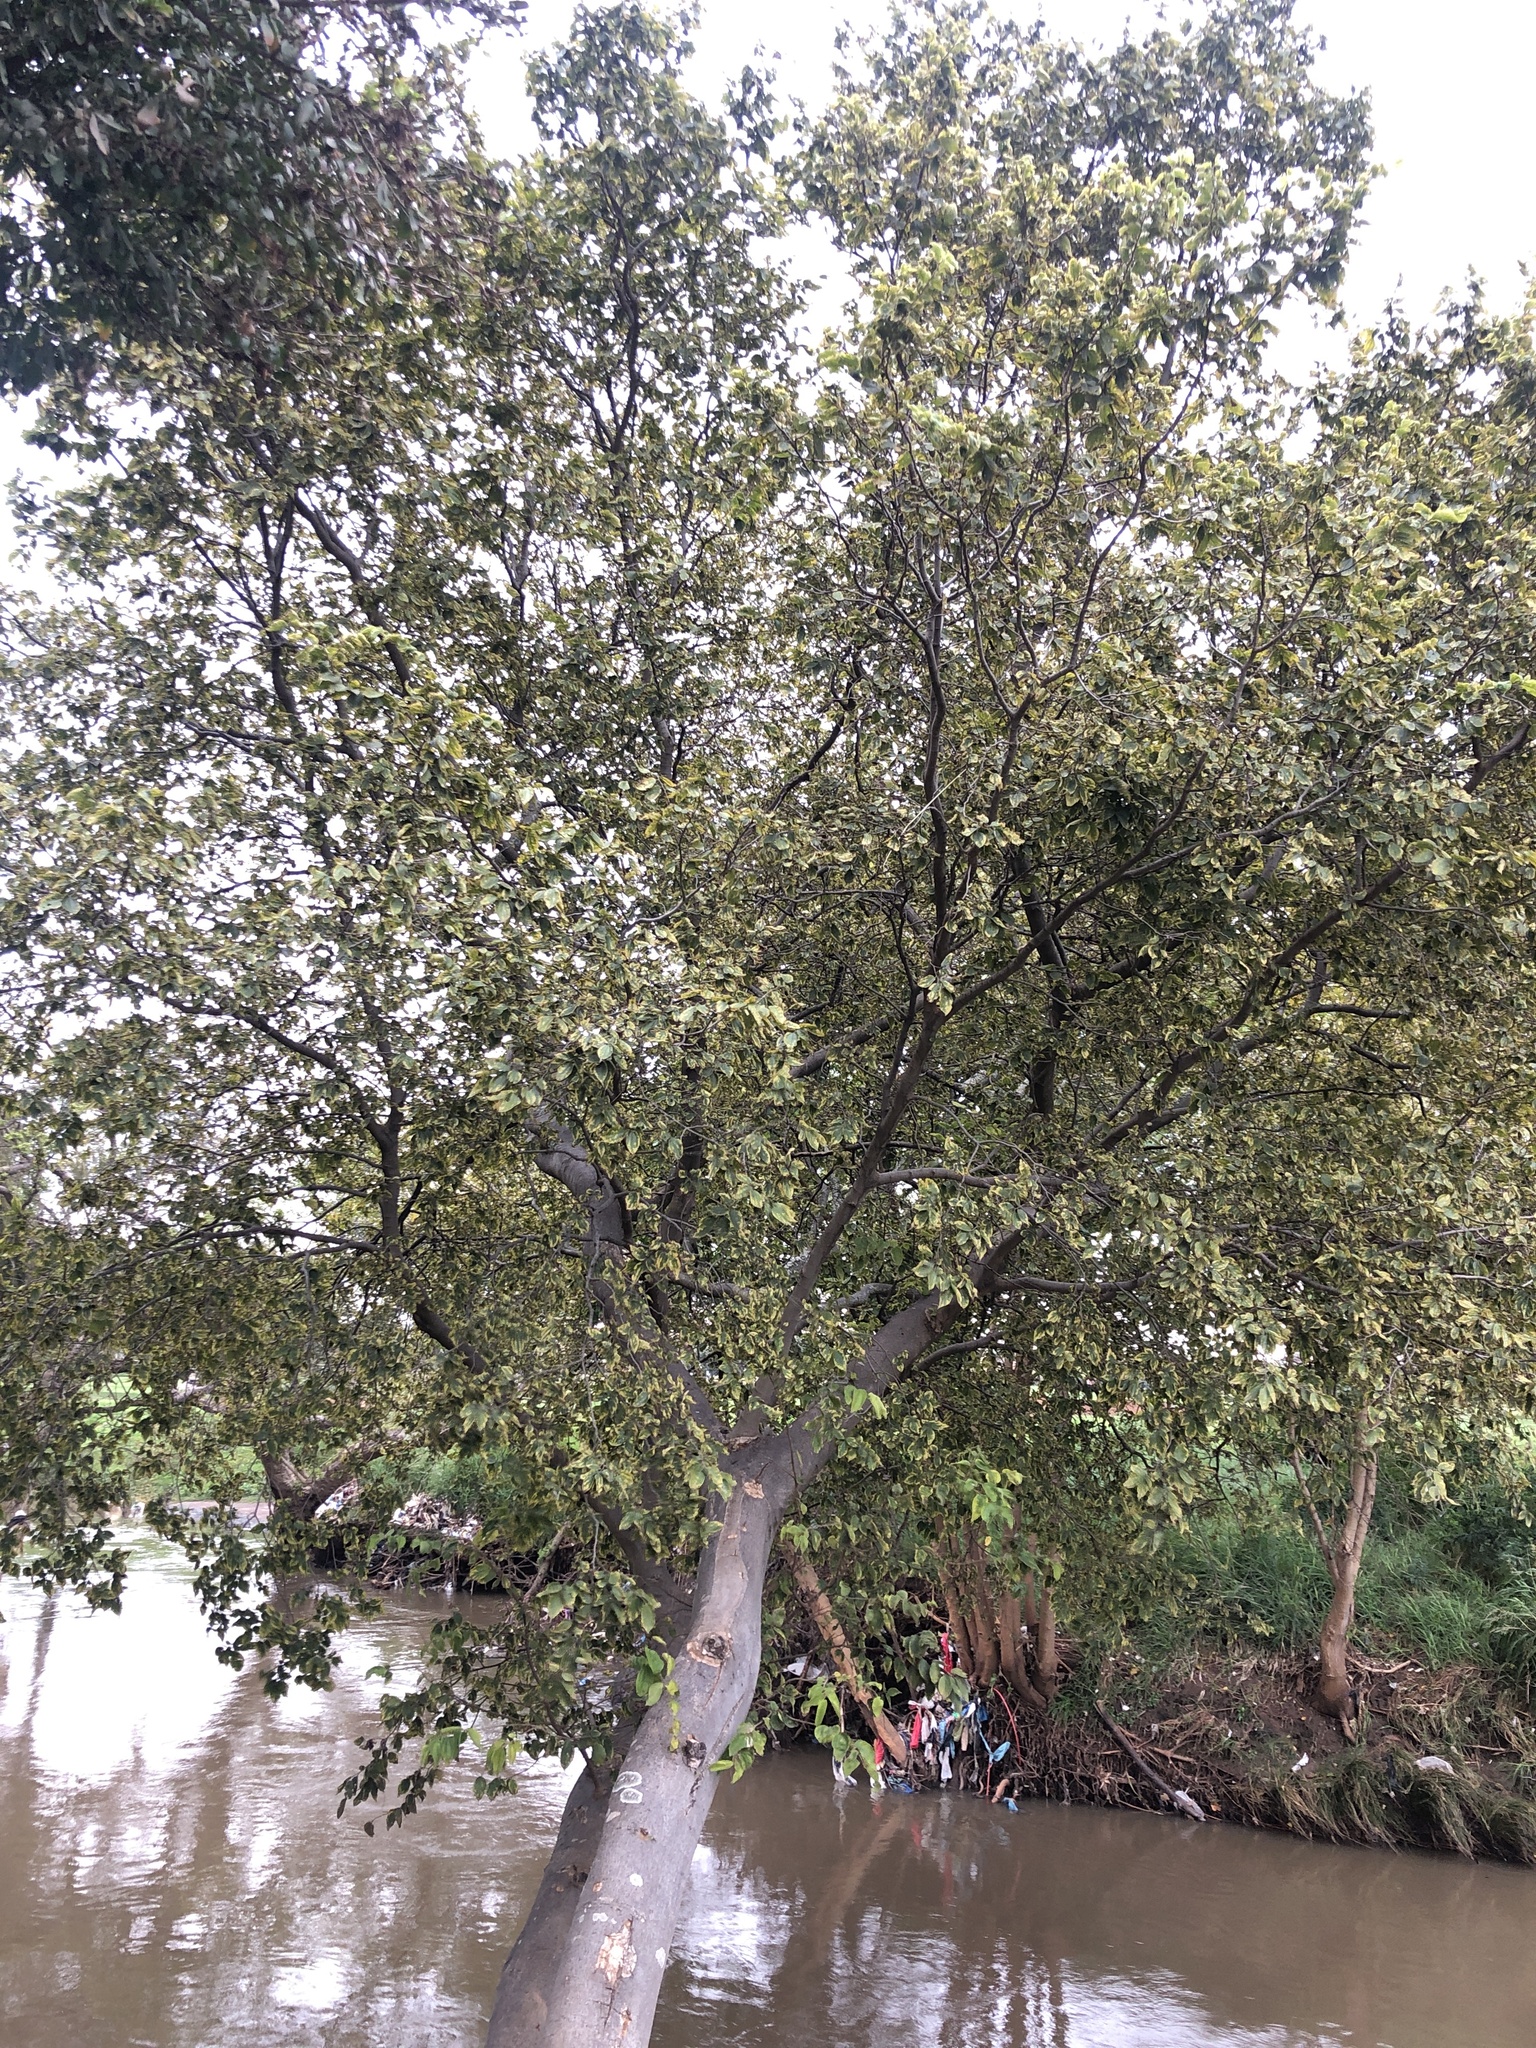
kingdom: Plantae
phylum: Tracheophyta
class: Magnoliopsida
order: Rosales
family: Cannabaceae
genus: Celtis
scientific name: Celtis africana
